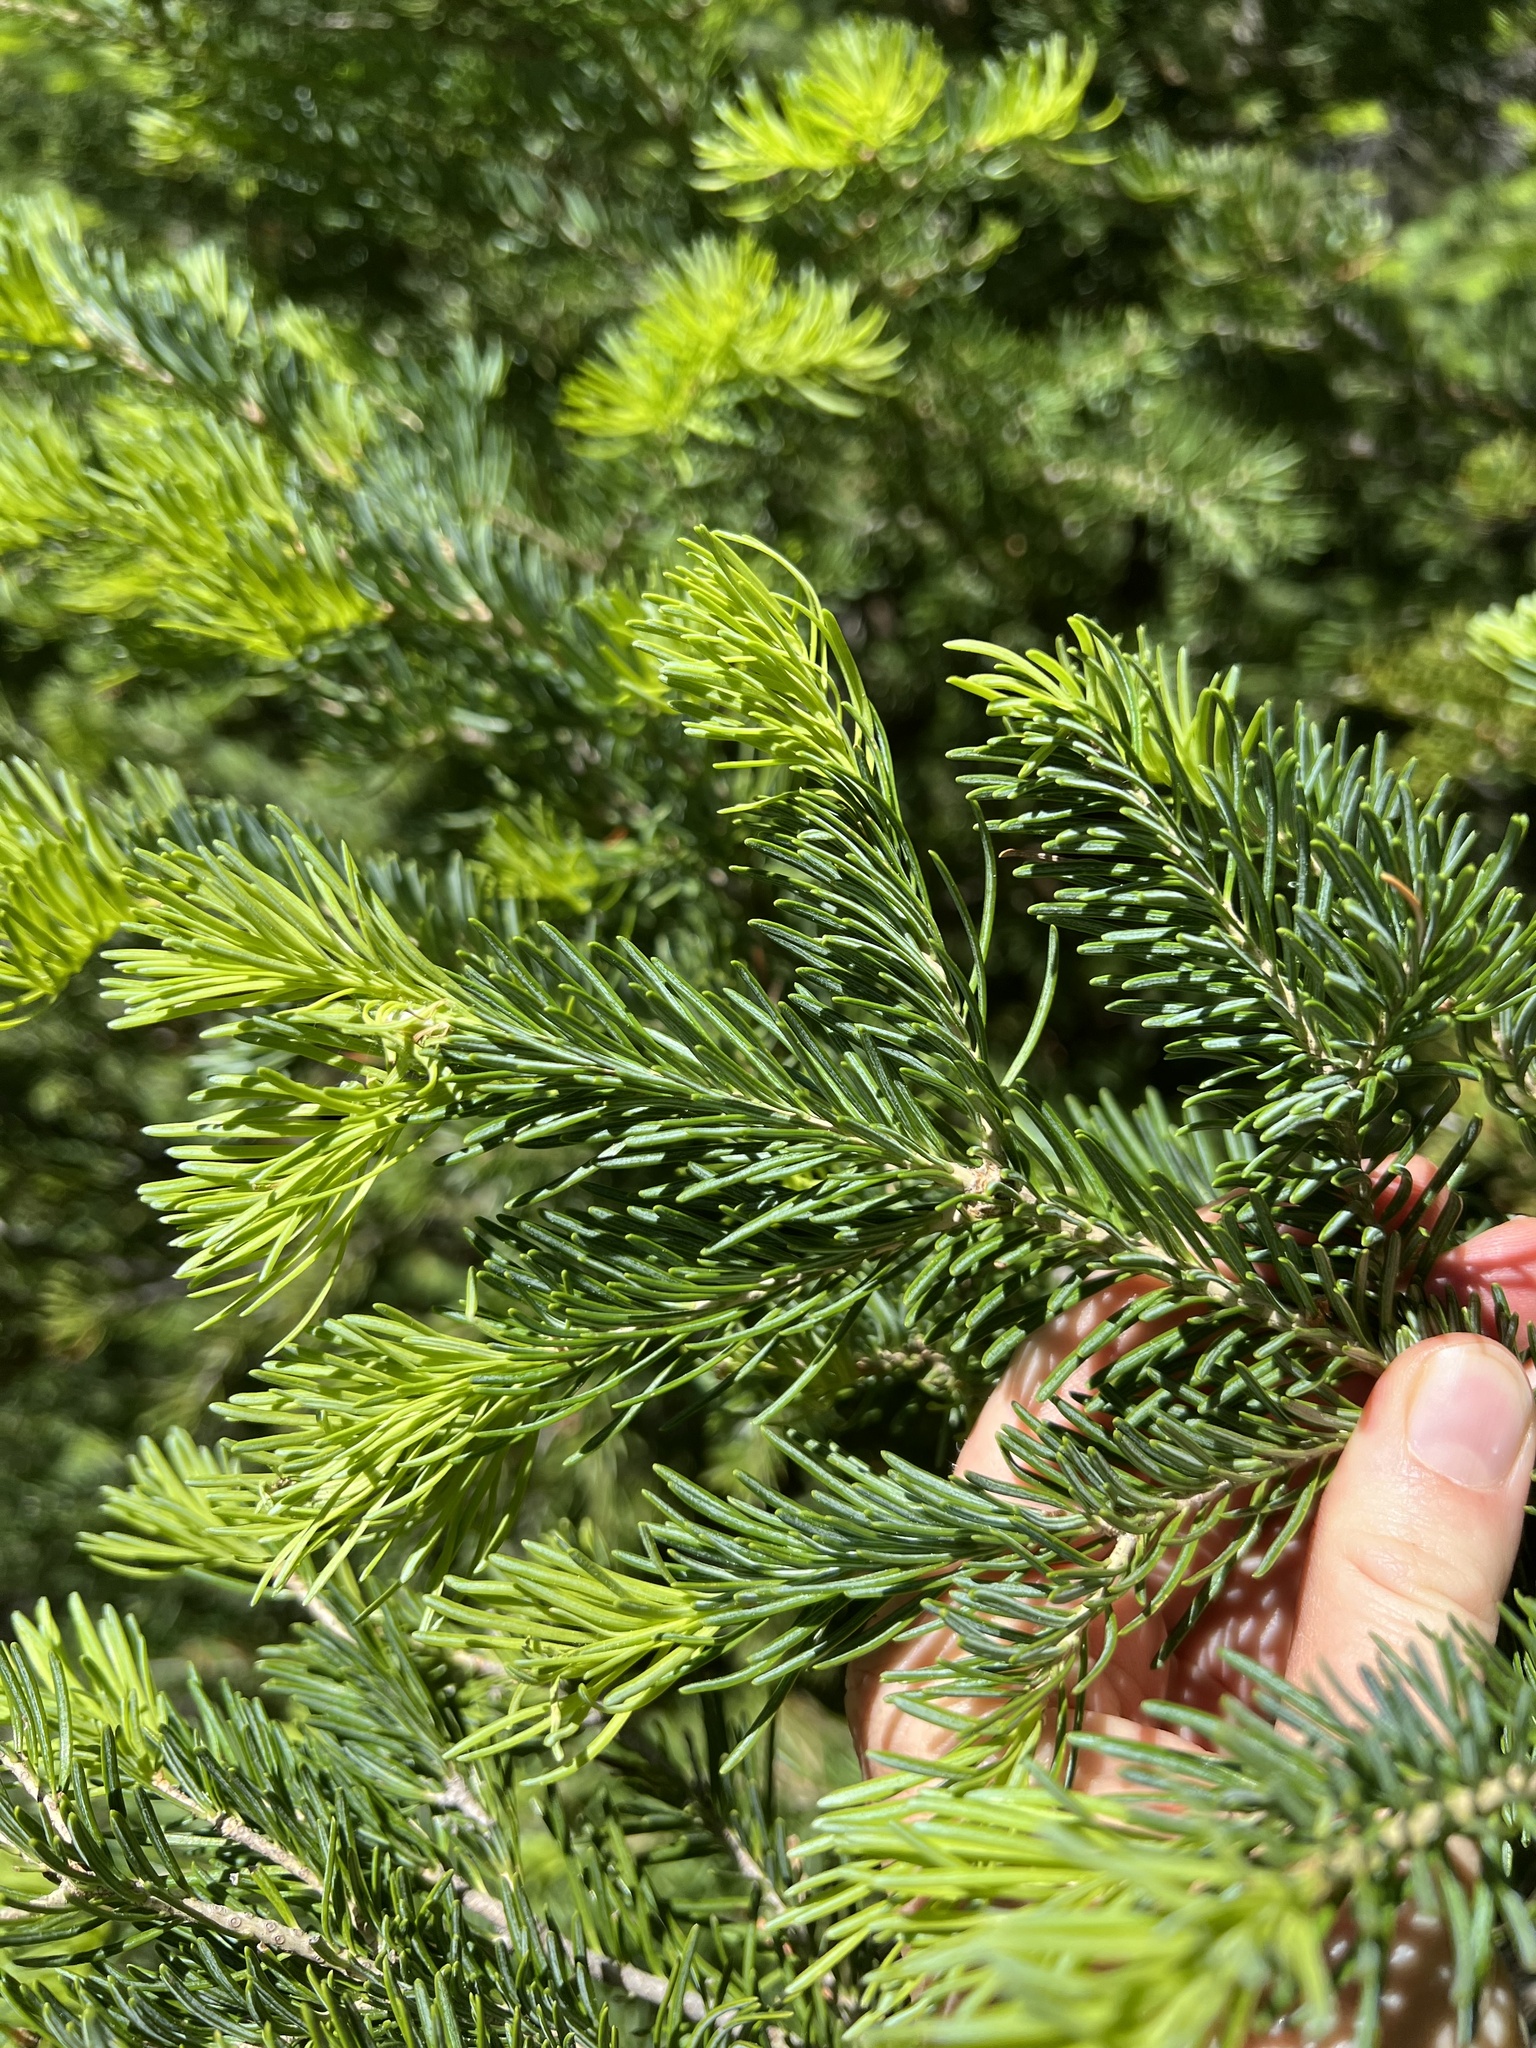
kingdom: Plantae
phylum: Tracheophyta
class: Pinopsida
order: Pinales
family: Pinaceae
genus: Abies
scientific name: Abies lasiocarpa
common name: Subalpine fir
